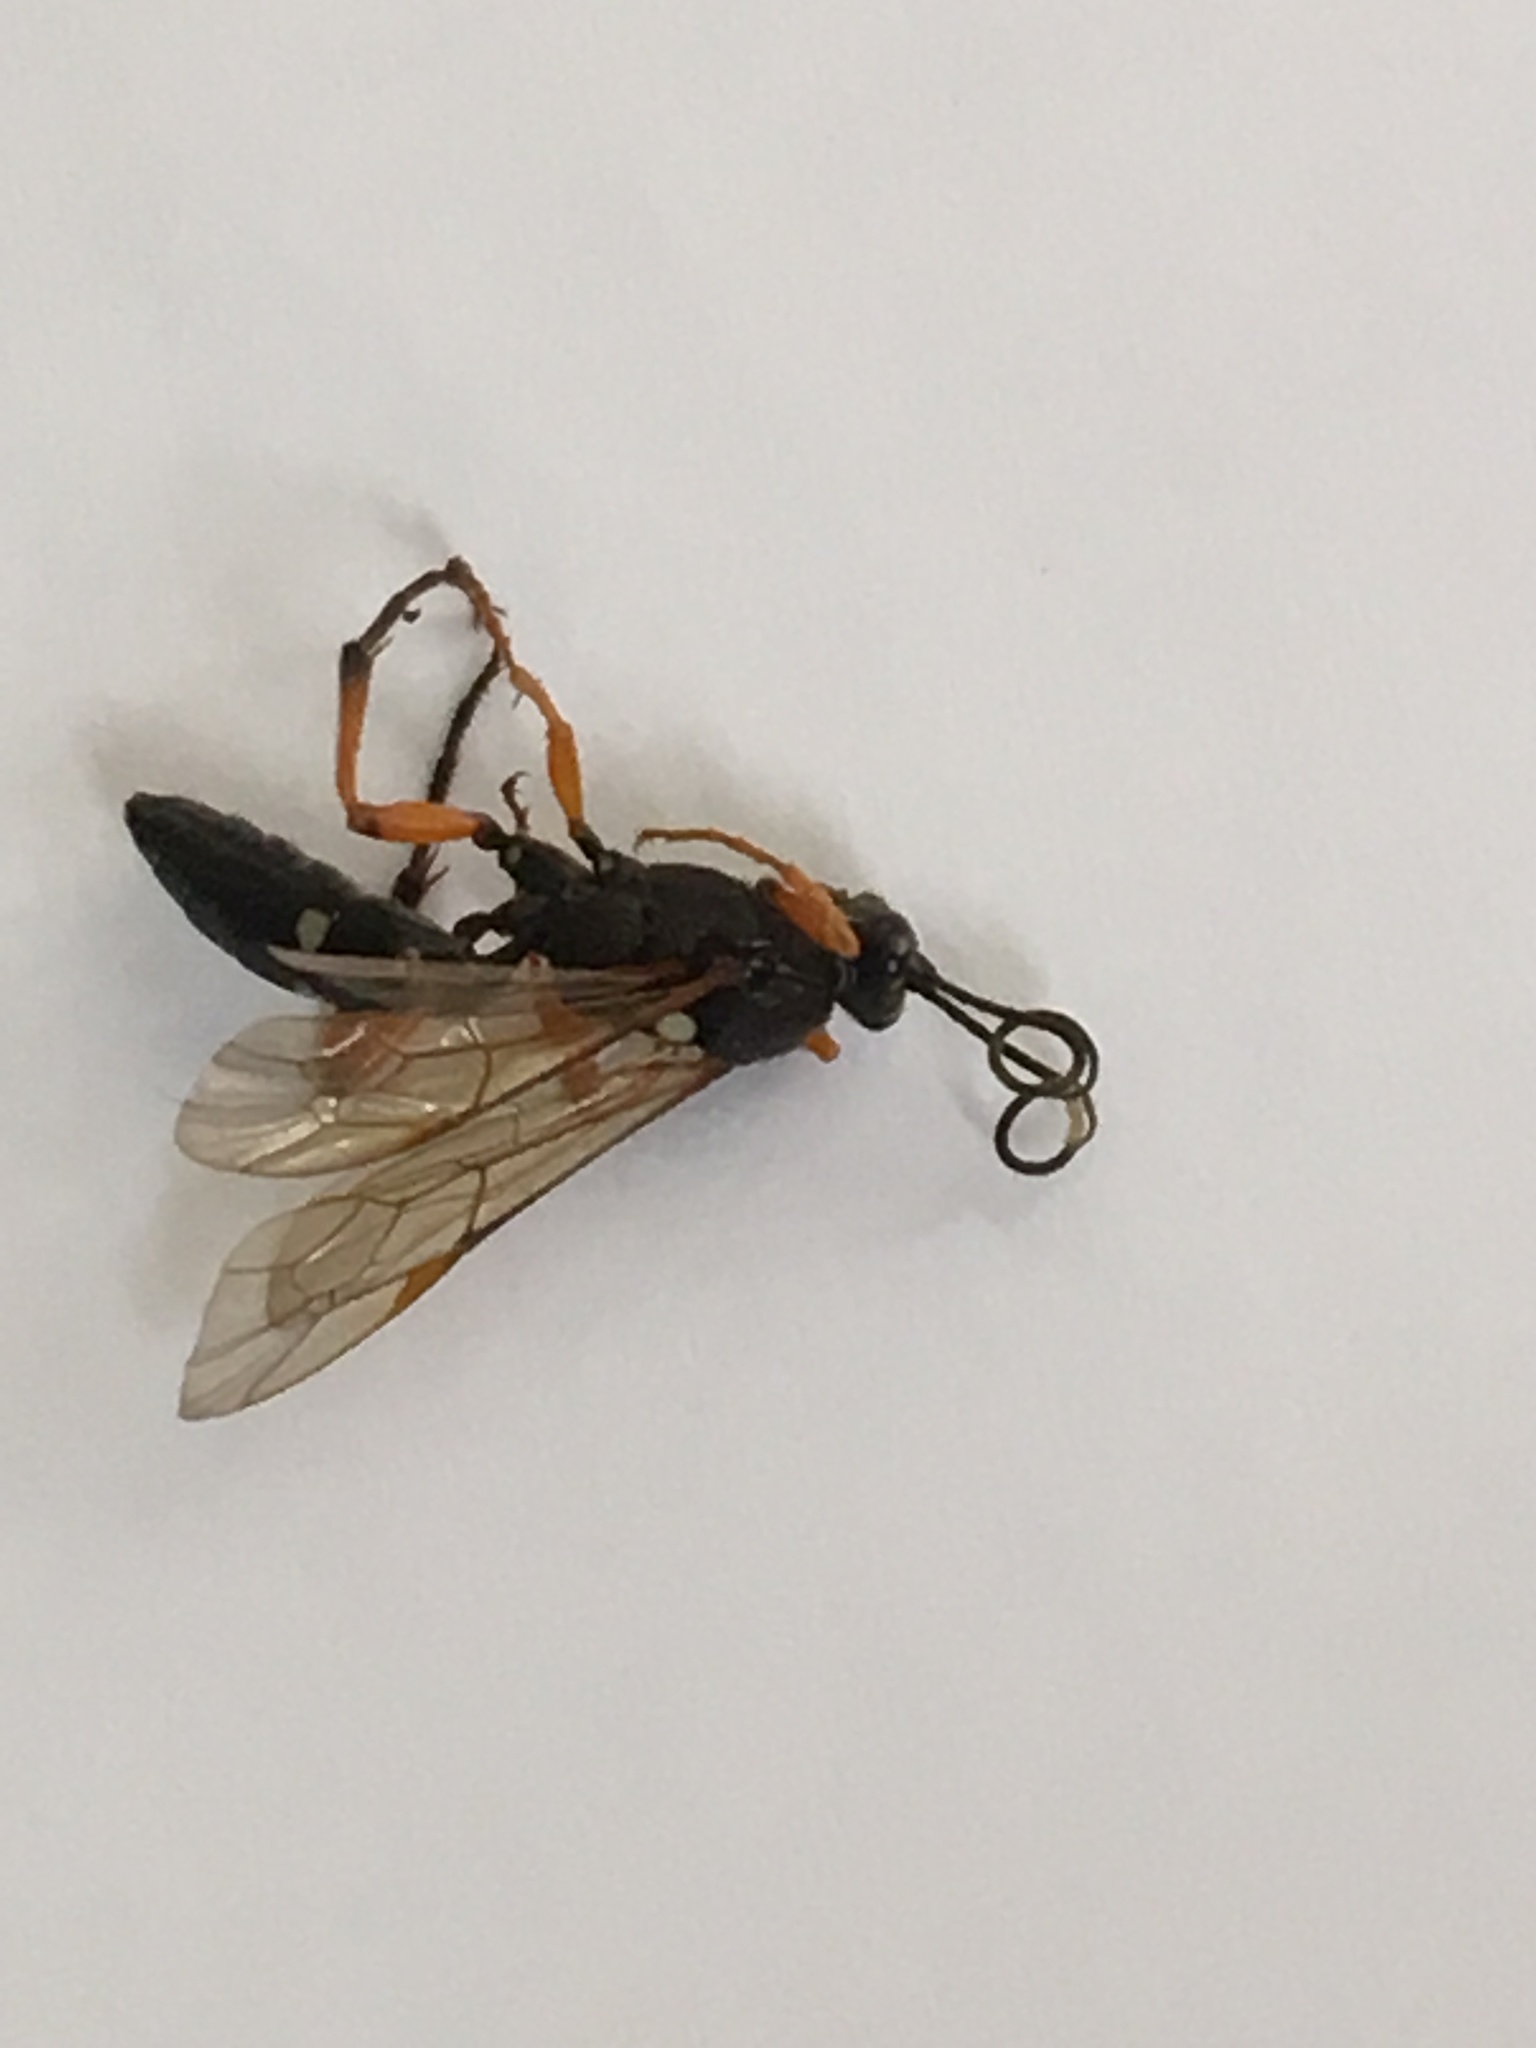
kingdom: Animalia
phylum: Arthropoda
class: Insecta
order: Hymenoptera
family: Ichneumonidae
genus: Diphyus
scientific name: Diphyus quadripunctorius
